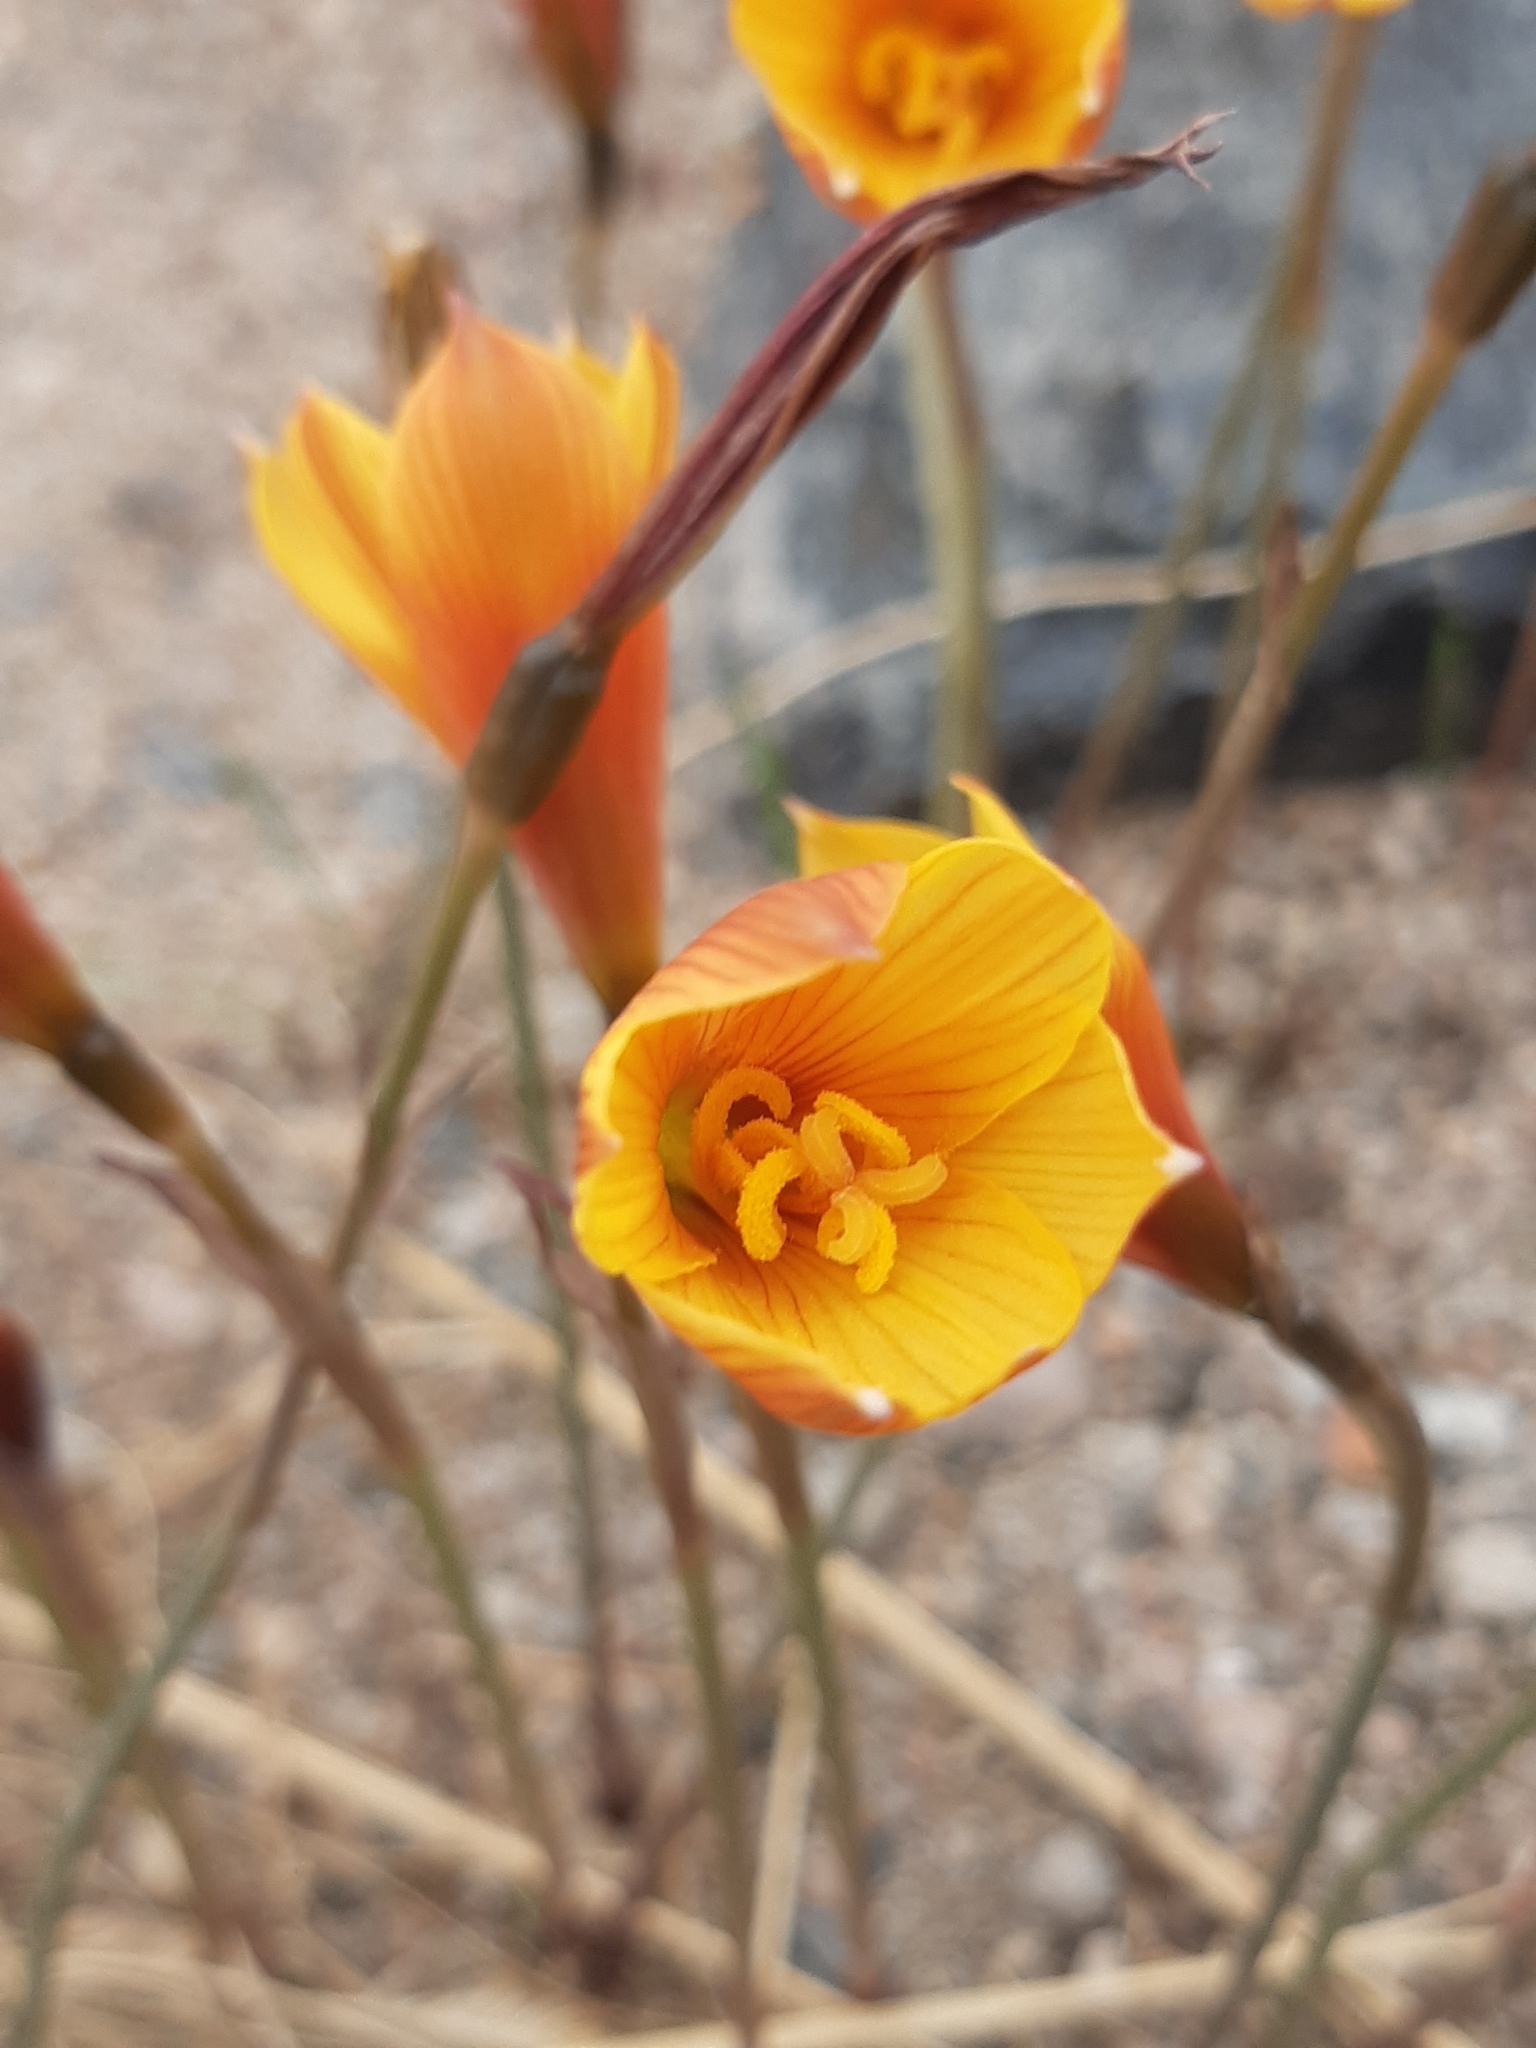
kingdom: Plantae
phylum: Tracheophyta
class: Liliopsida
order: Asparagales
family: Amaryllidaceae
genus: Zephyranthes
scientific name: Zephyranthes tubispatha
